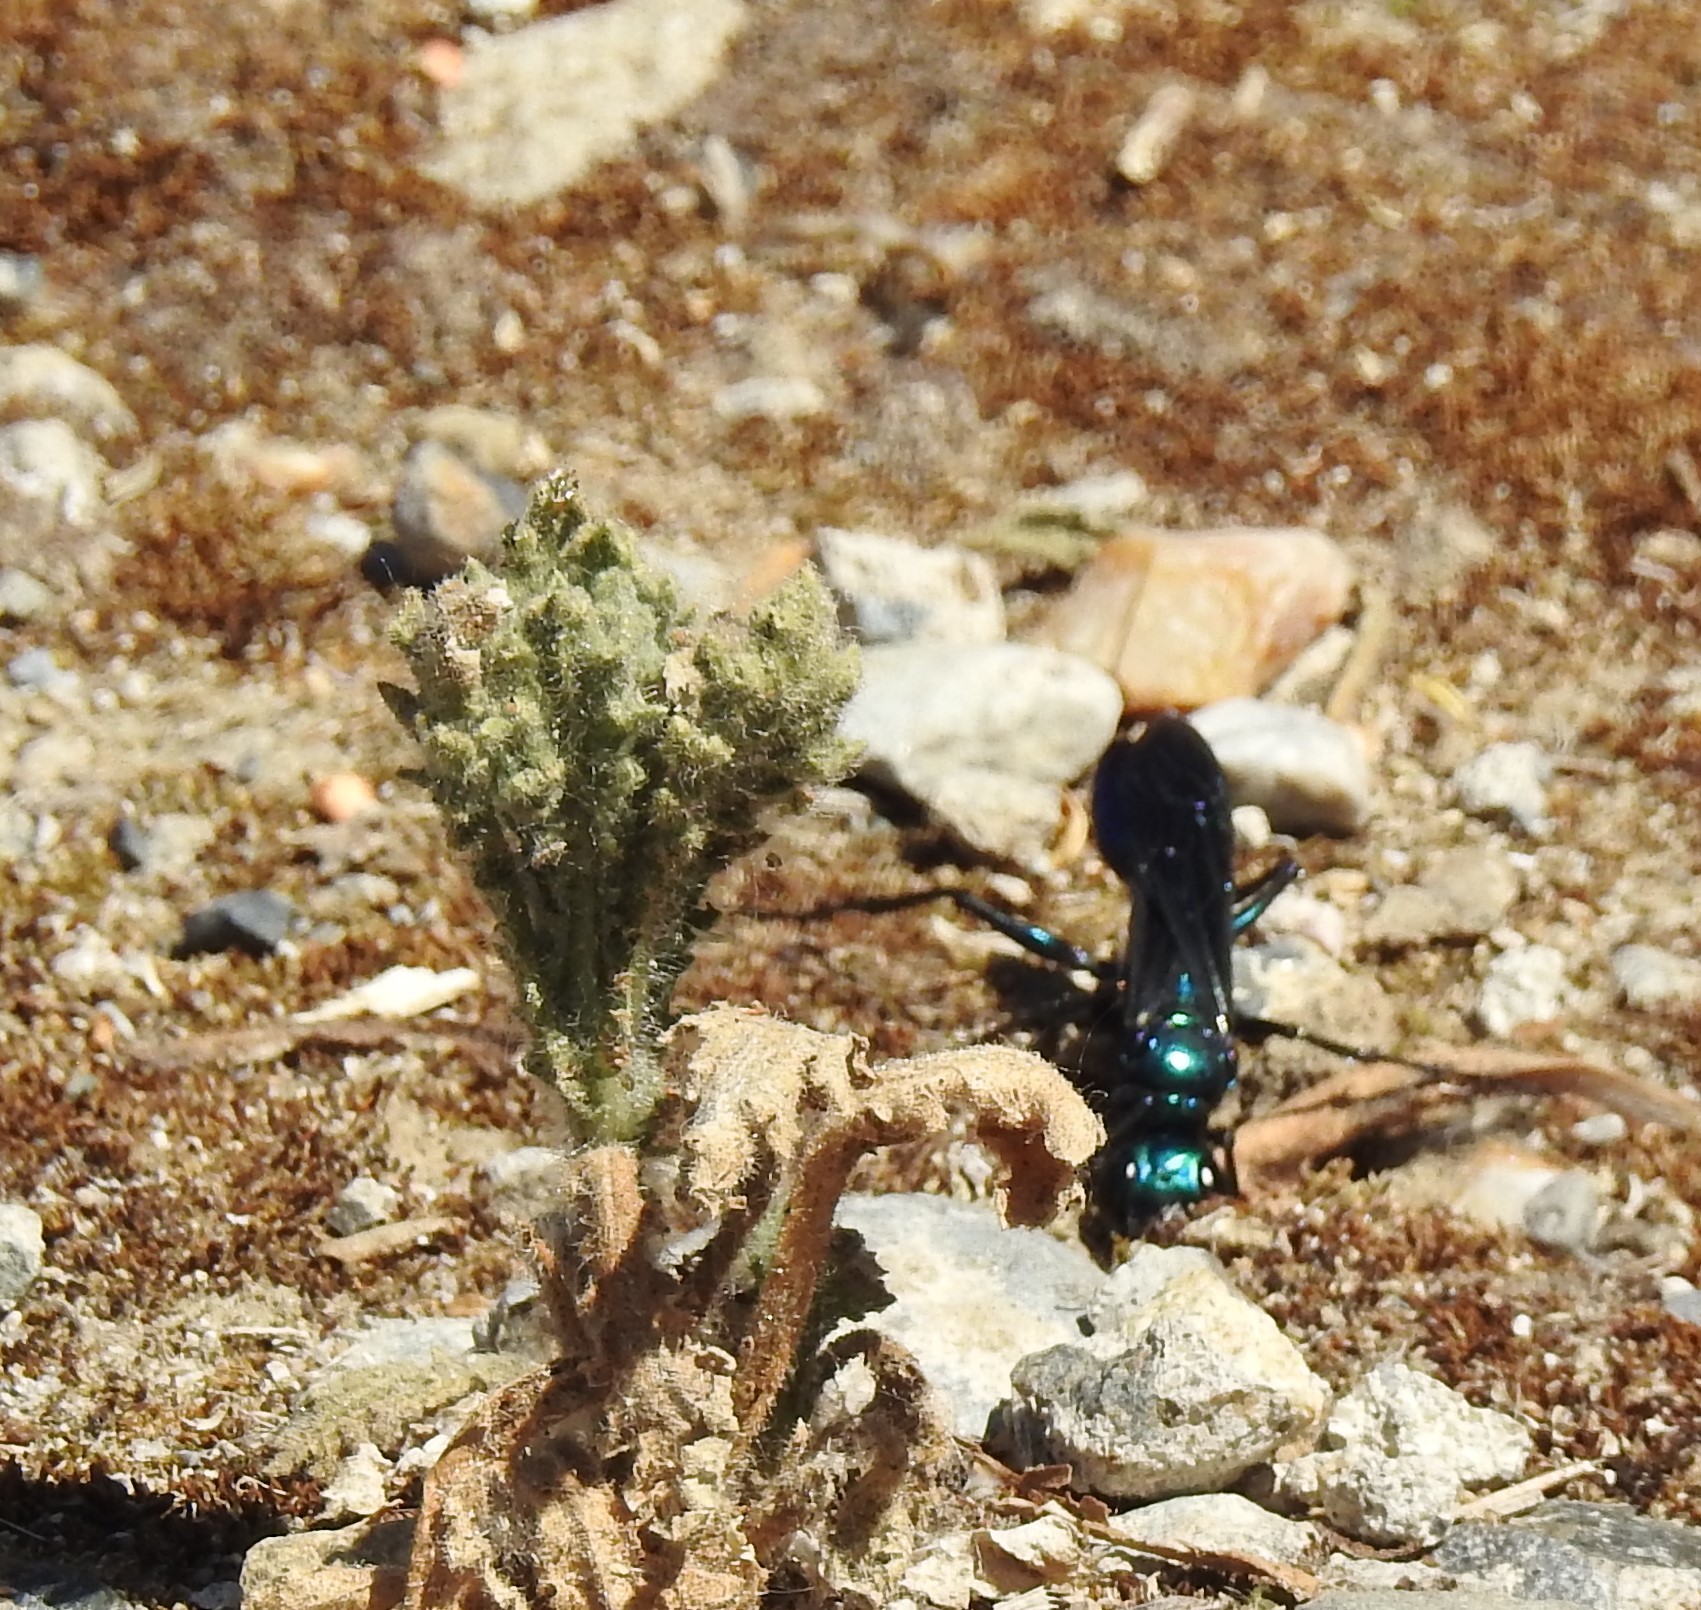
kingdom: Animalia
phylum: Arthropoda
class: Insecta
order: Hymenoptera
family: Sphecidae
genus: Chlorion
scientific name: Chlorion aerarium
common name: Steel-blue cricket hunter
